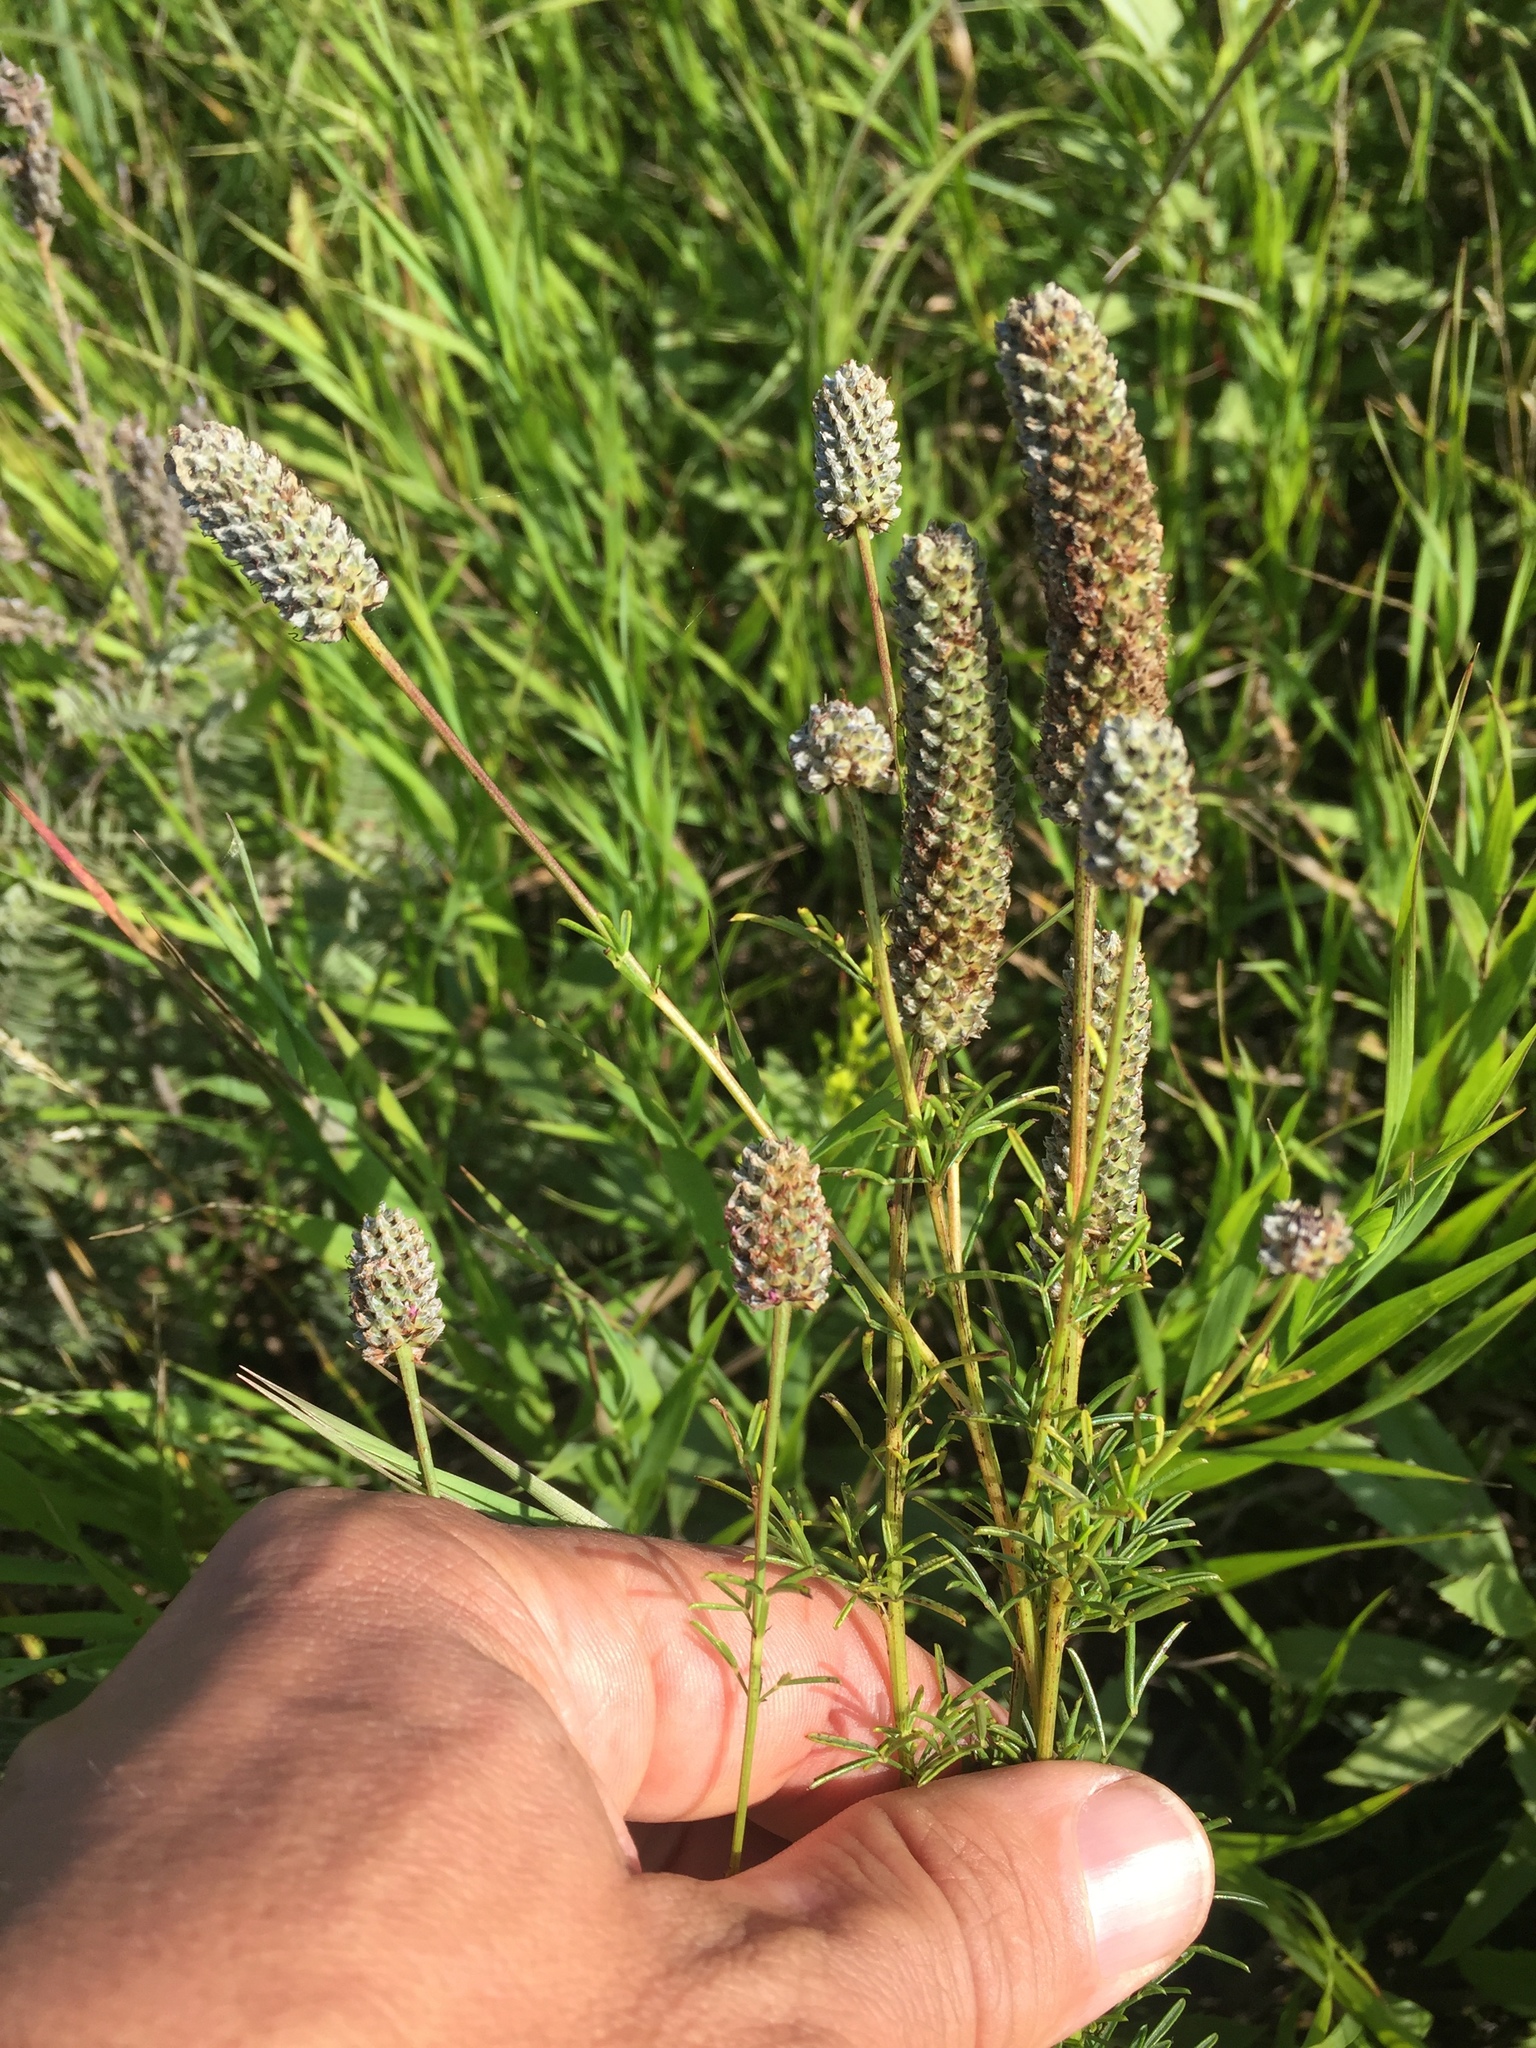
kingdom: Plantae
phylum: Tracheophyta
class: Magnoliopsida
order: Fabales
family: Fabaceae
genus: Dalea
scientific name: Dalea purpurea
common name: Purple prairie-clover
